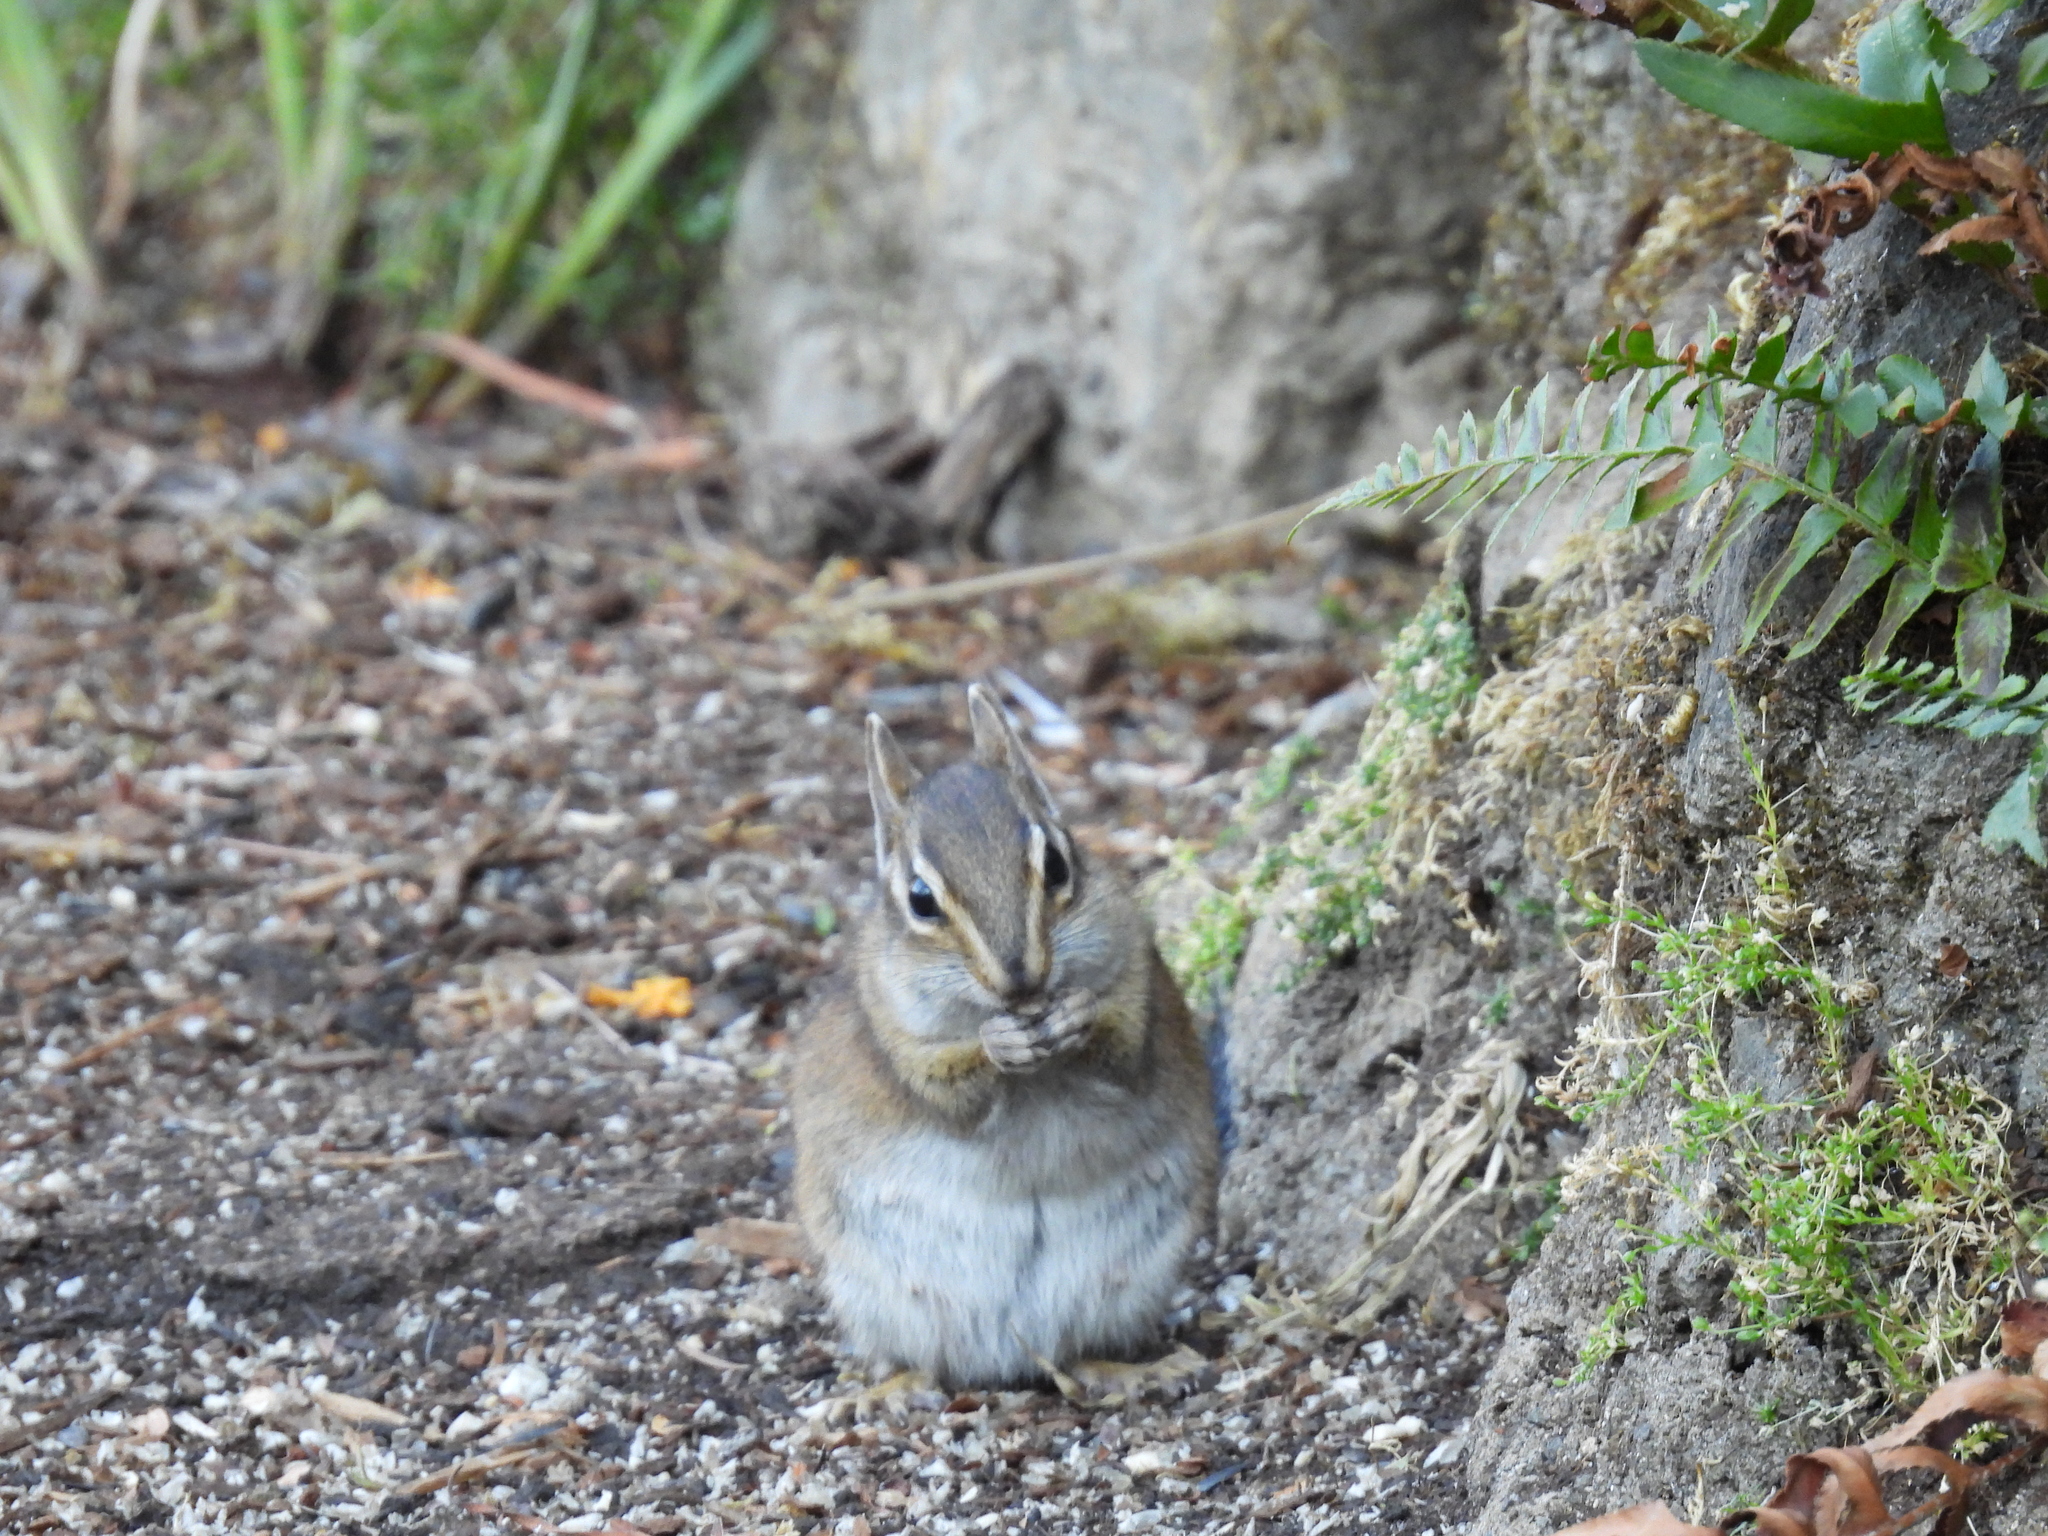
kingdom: Animalia
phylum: Chordata
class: Mammalia
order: Rodentia
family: Sciuridae
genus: Tamias
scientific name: Tamias townsendii
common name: Townsend's chipmunk
